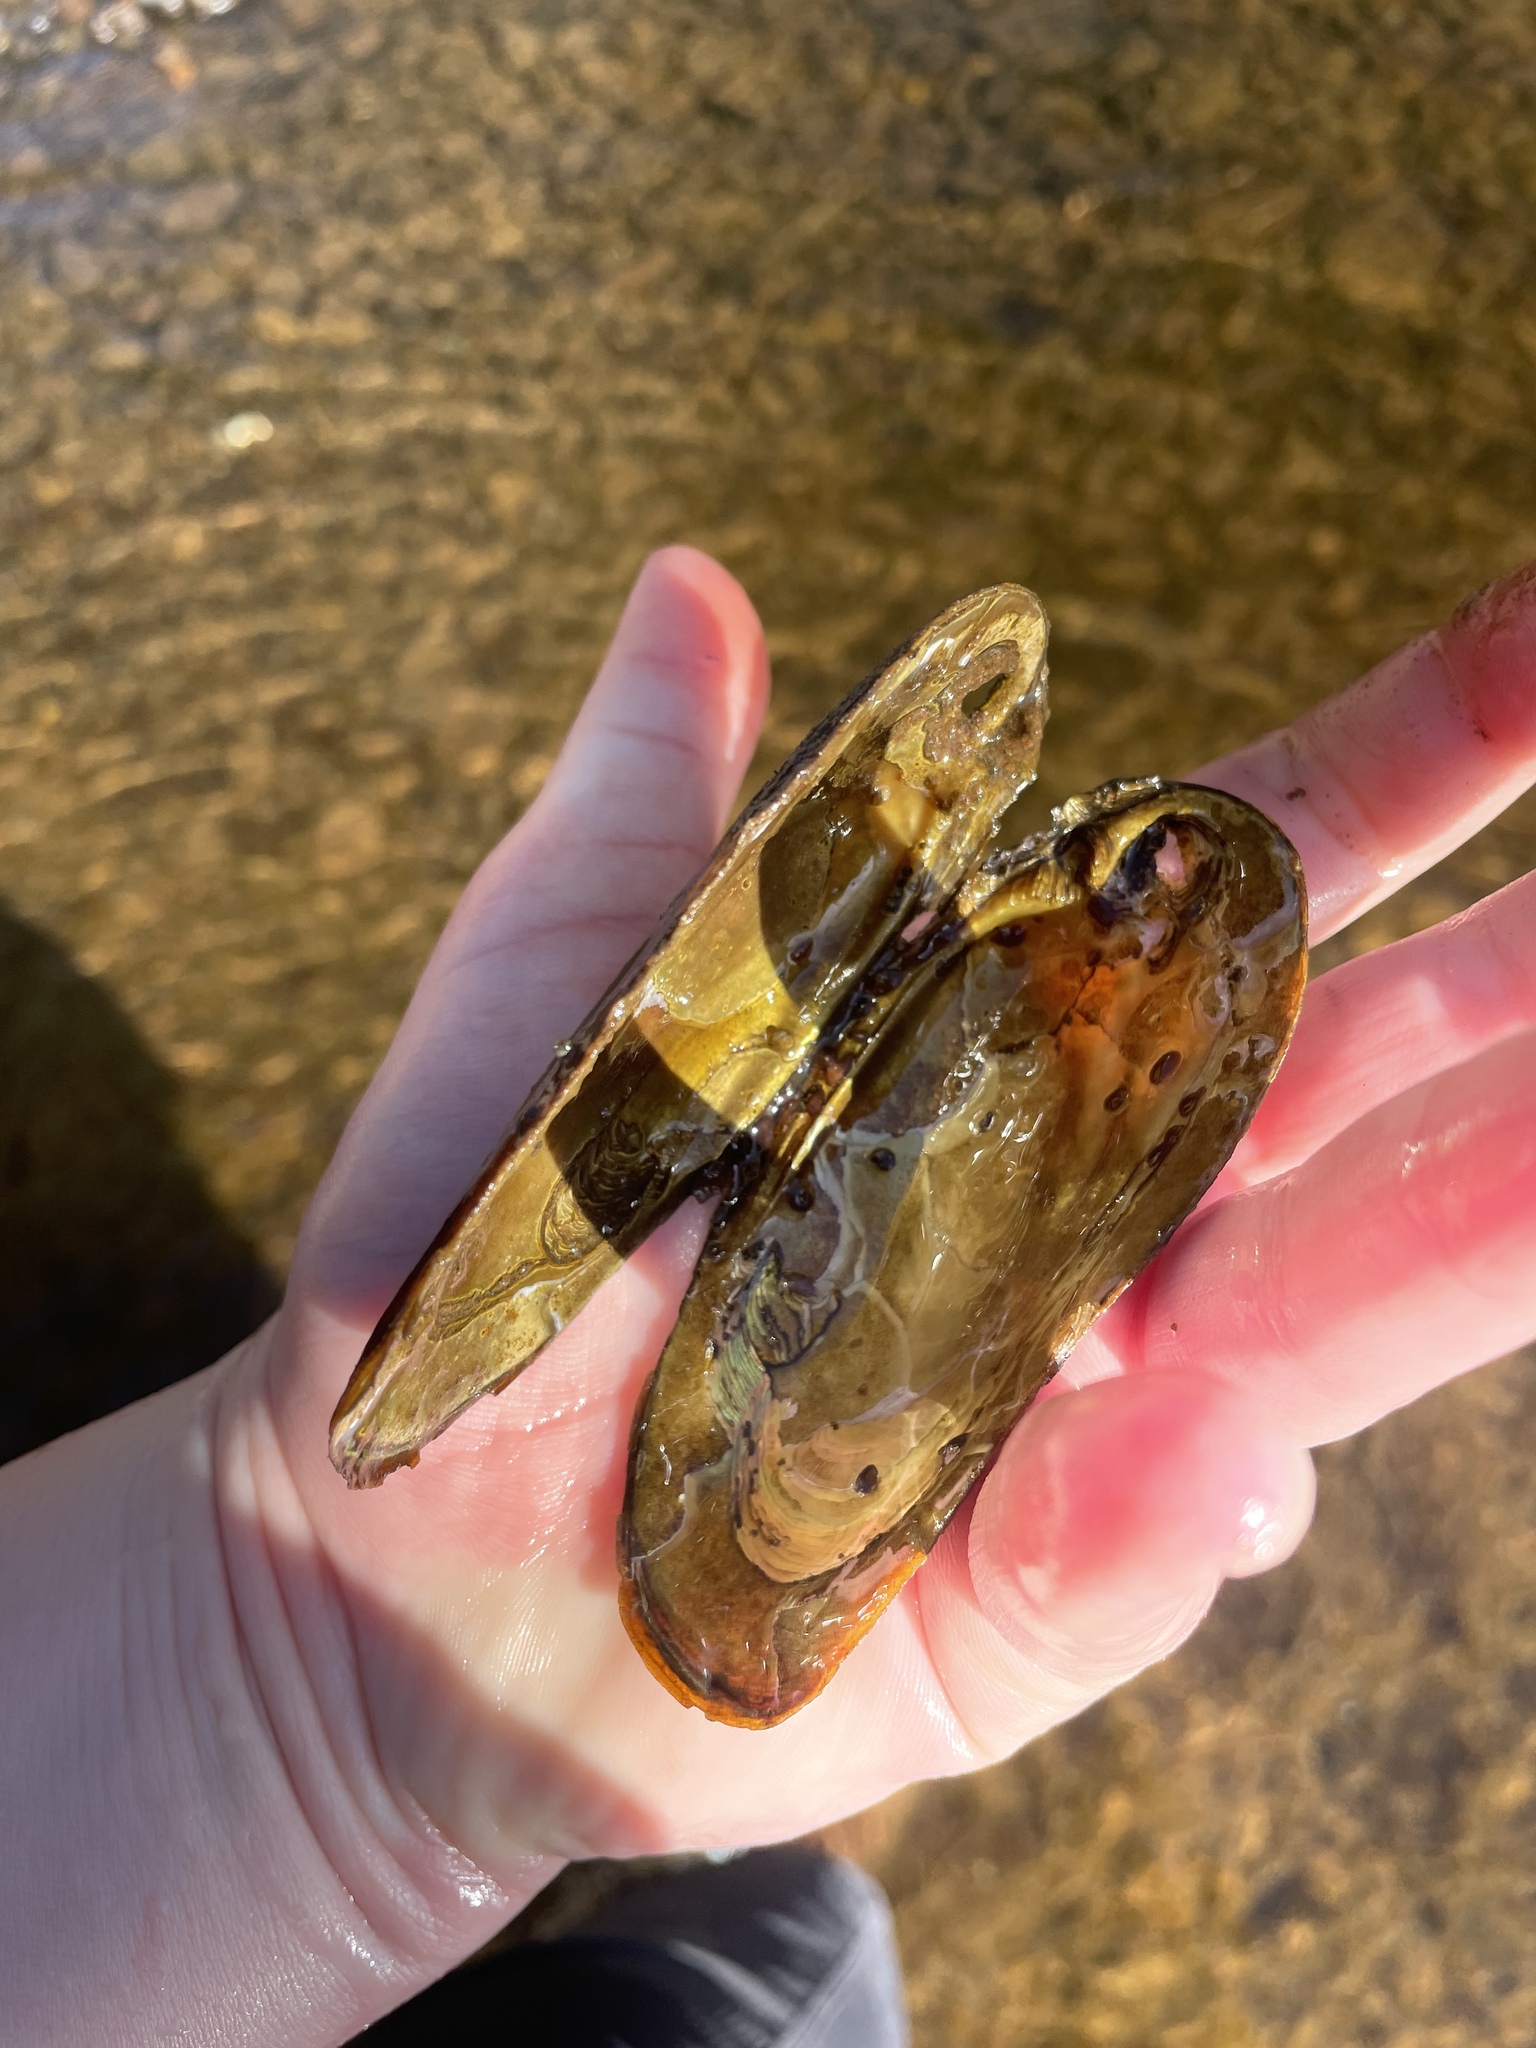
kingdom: Animalia
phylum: Mollusca
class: Bivalvia
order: Unionida
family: Unionidae
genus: Elliptio
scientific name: Elliptio complanata
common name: Eastern elliptio
